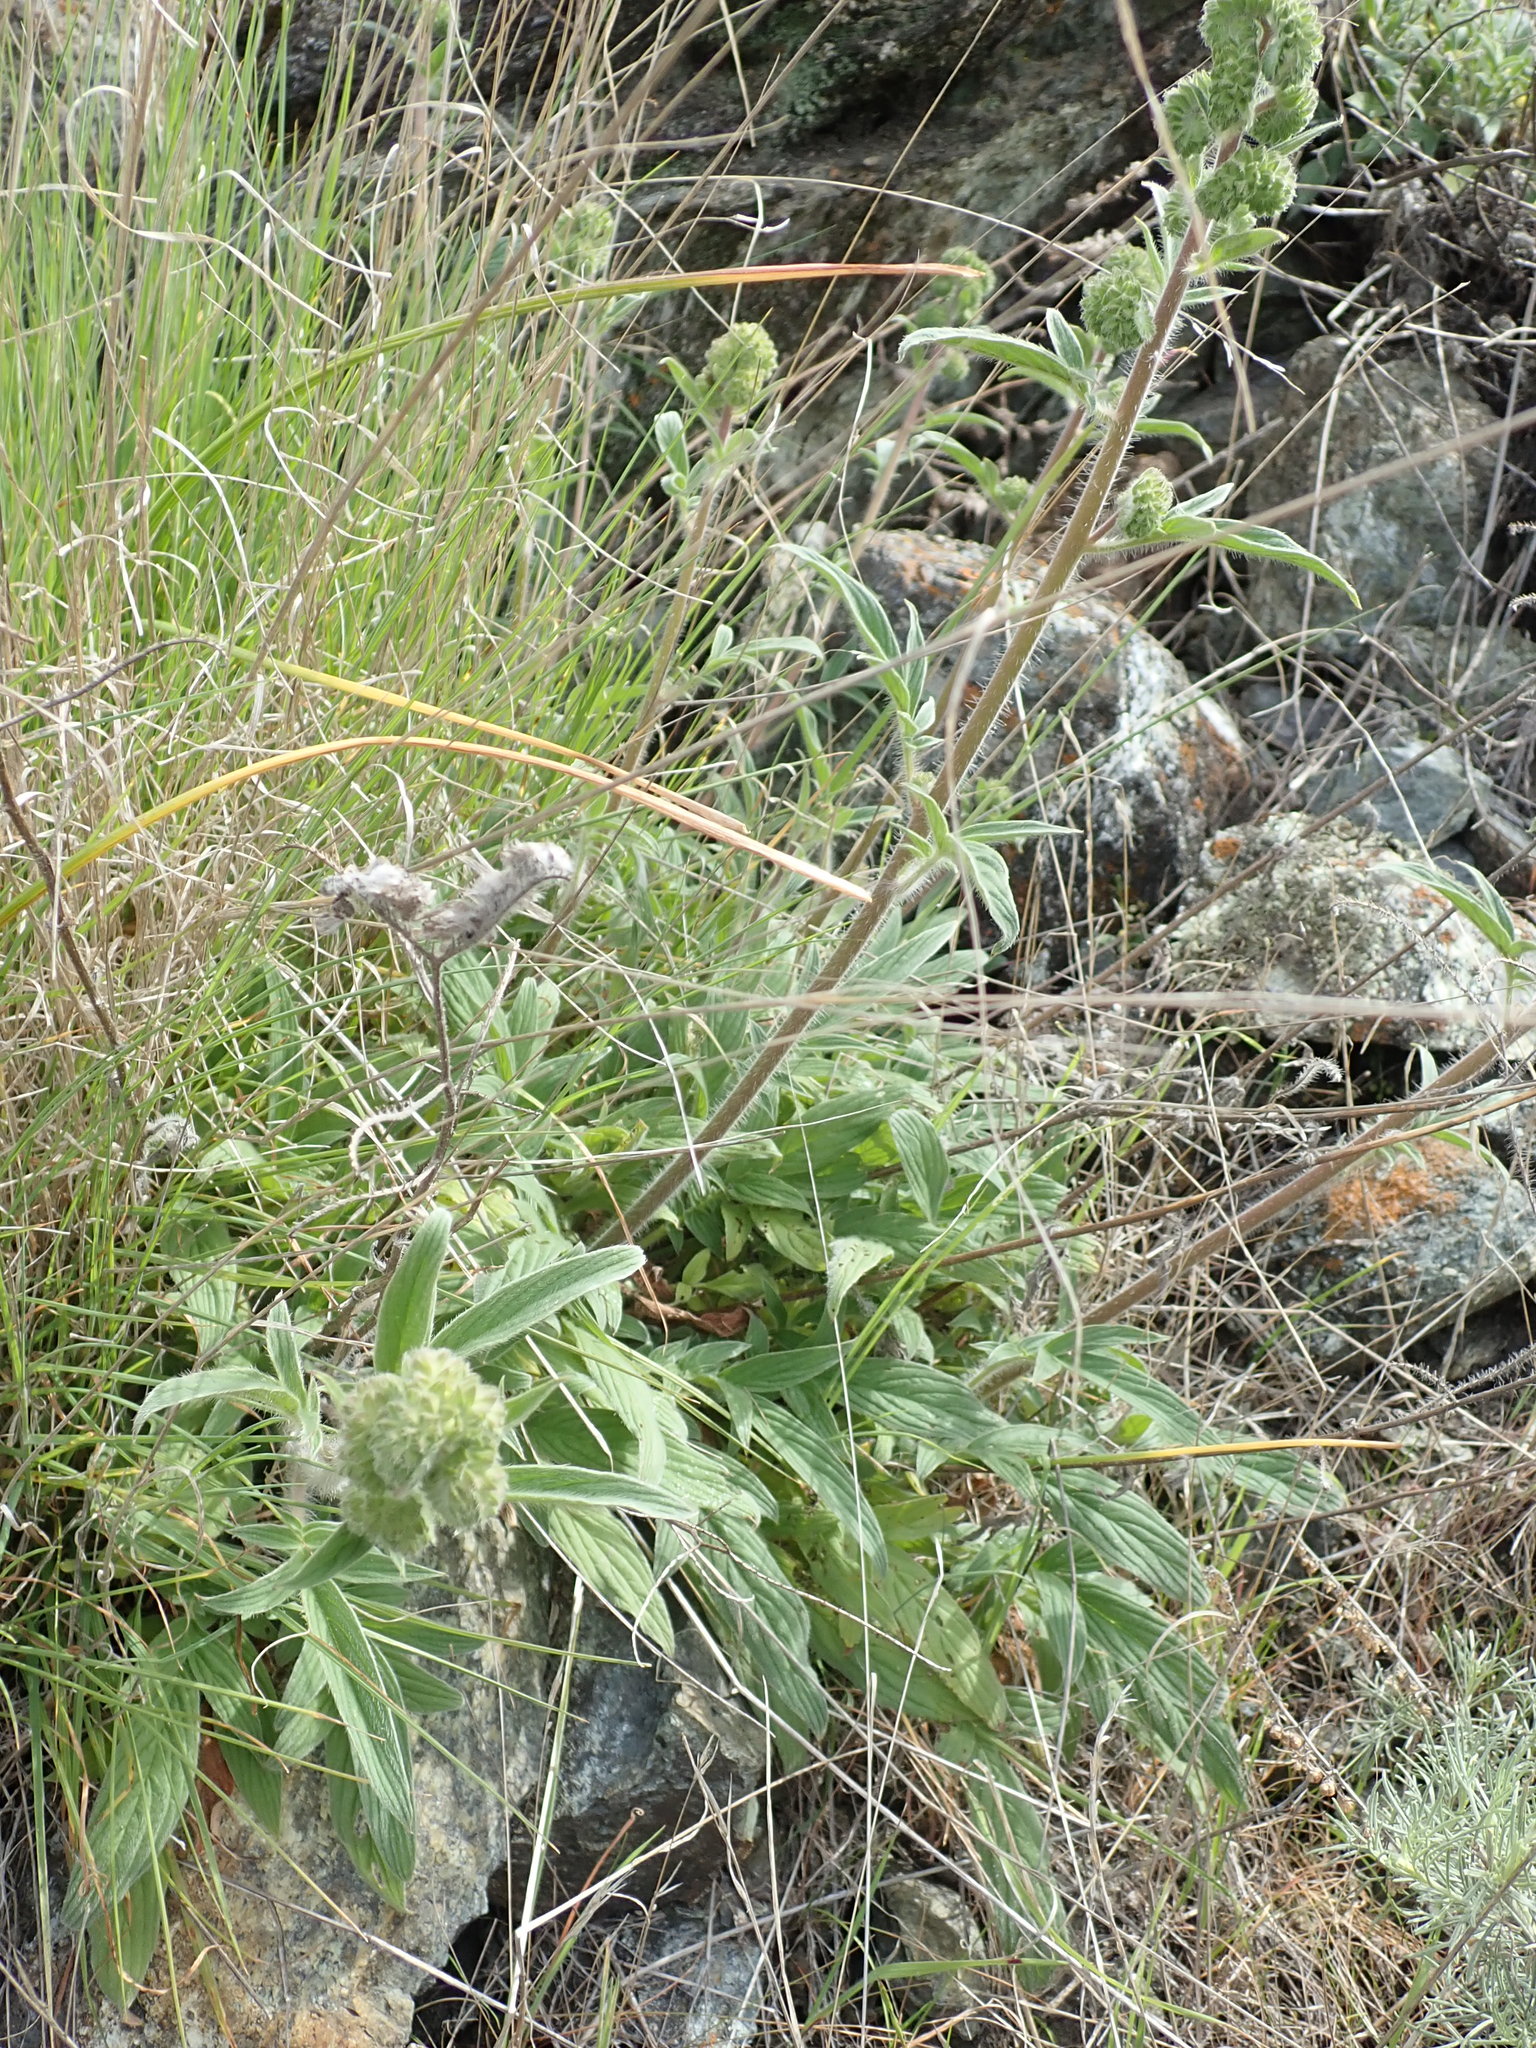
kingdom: Plantae
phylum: Tracheophyta
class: Magnoliopsida
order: Boraginales
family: Hydrophyllaceae
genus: Phacelia
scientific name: Phacelia imbricata
